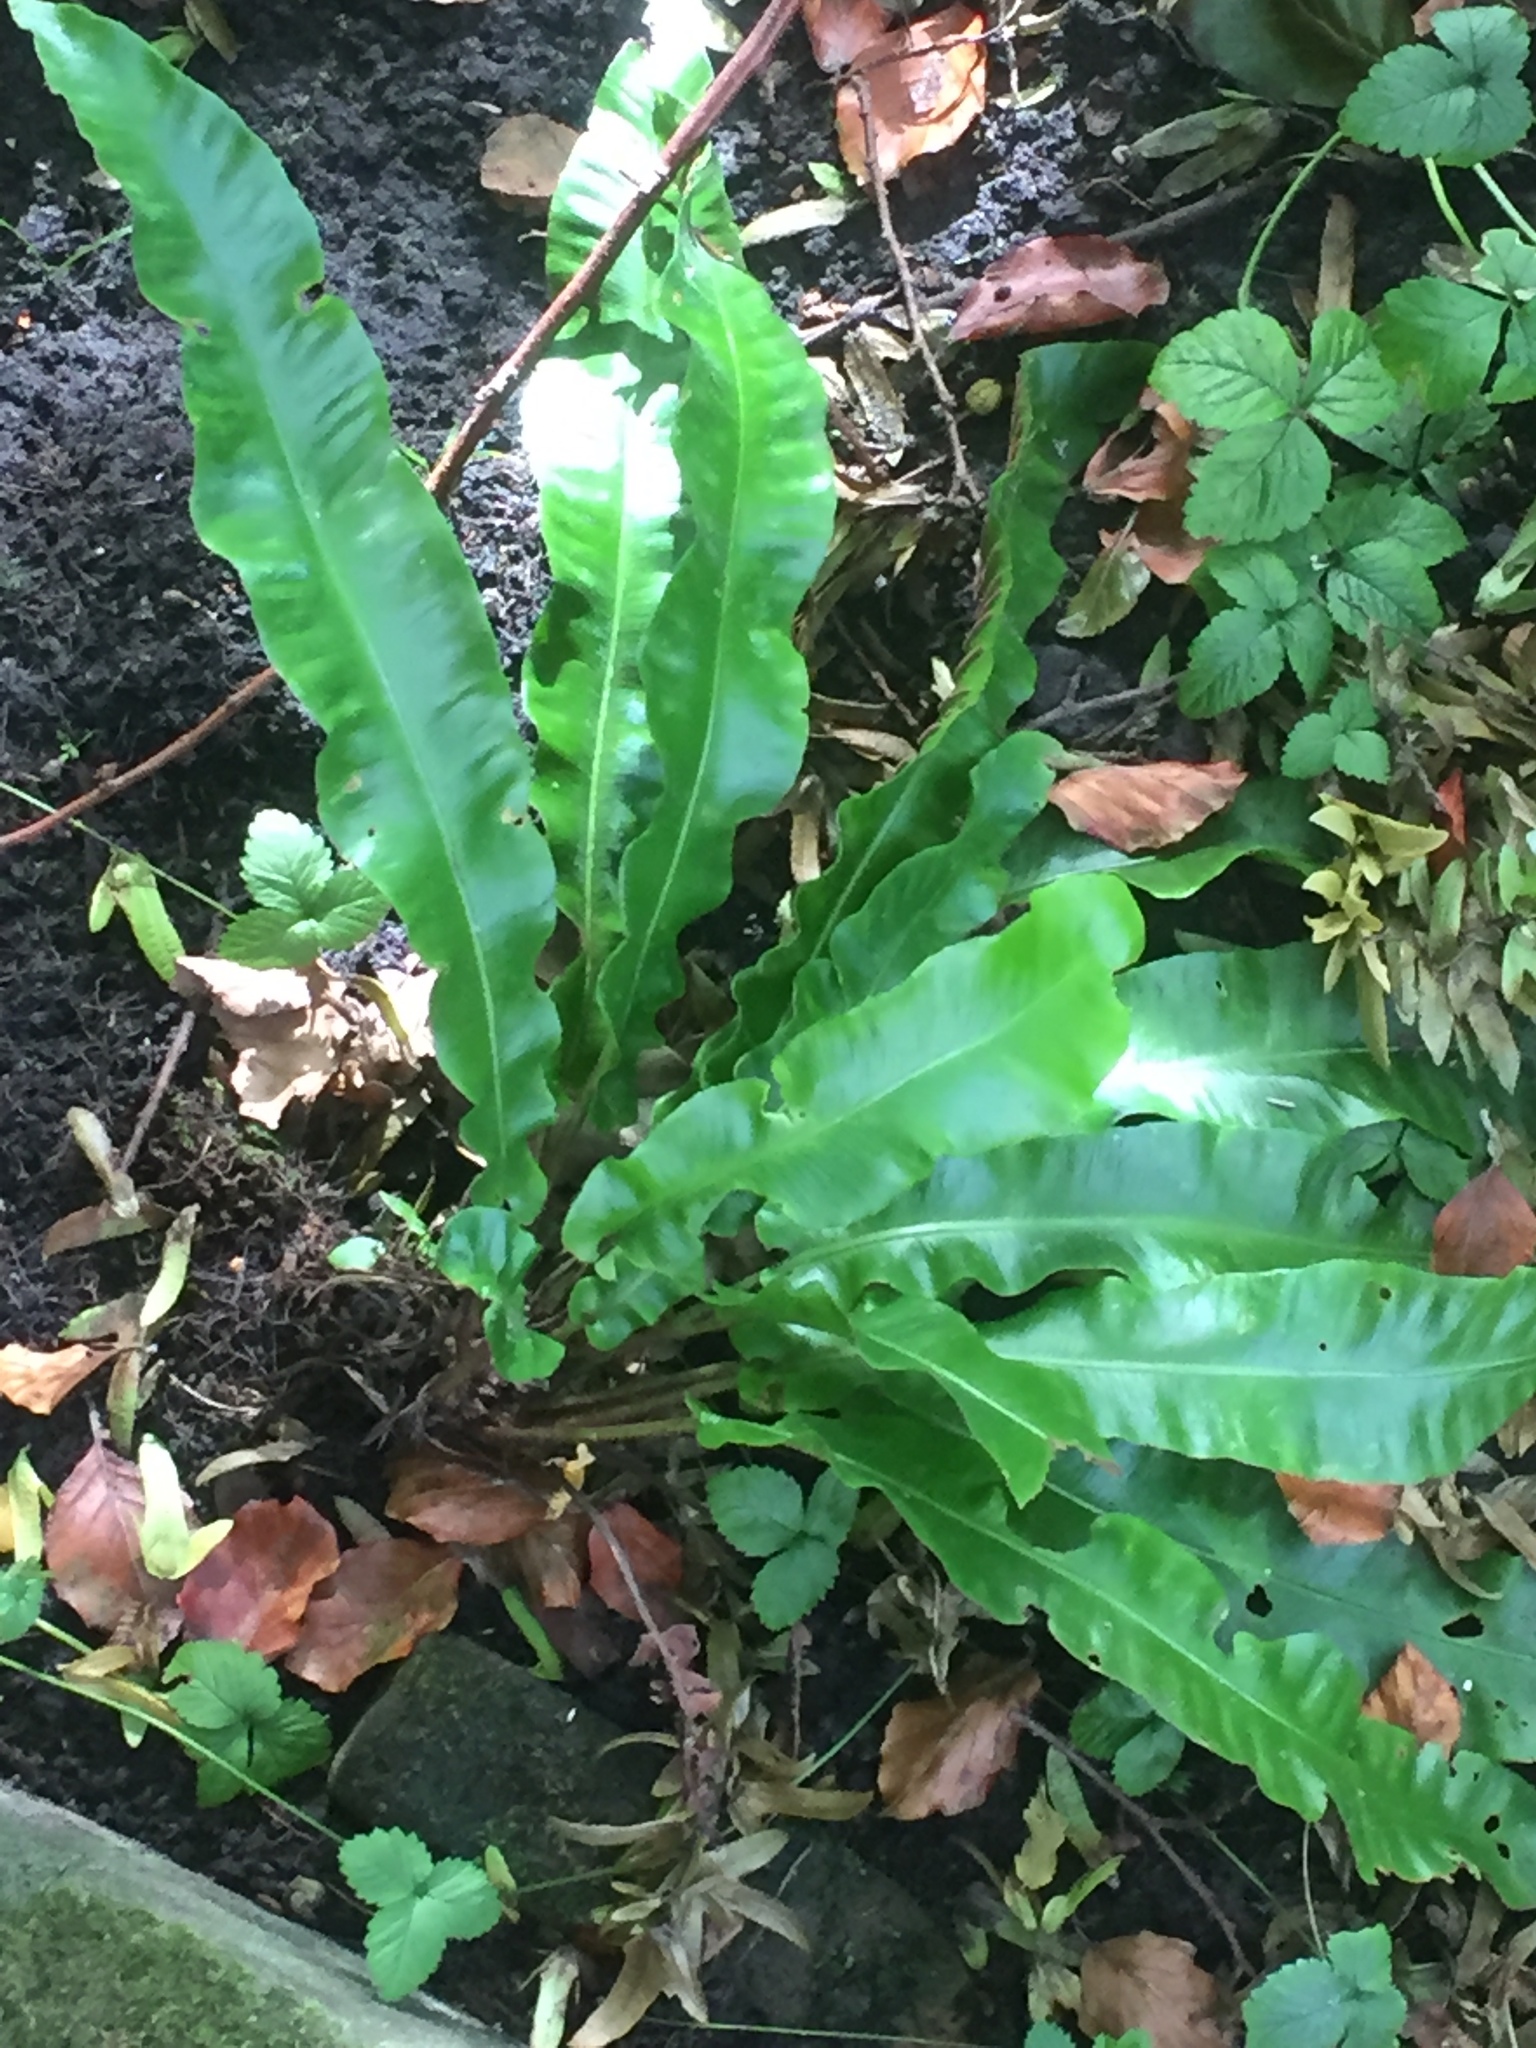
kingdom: Plantae
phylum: Tracheophyta
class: Polypodiopsida
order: Polypodiales
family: Aspleniaceae
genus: Asplenium
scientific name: Asplenium scolopendrium
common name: Hart's-tongue fern
